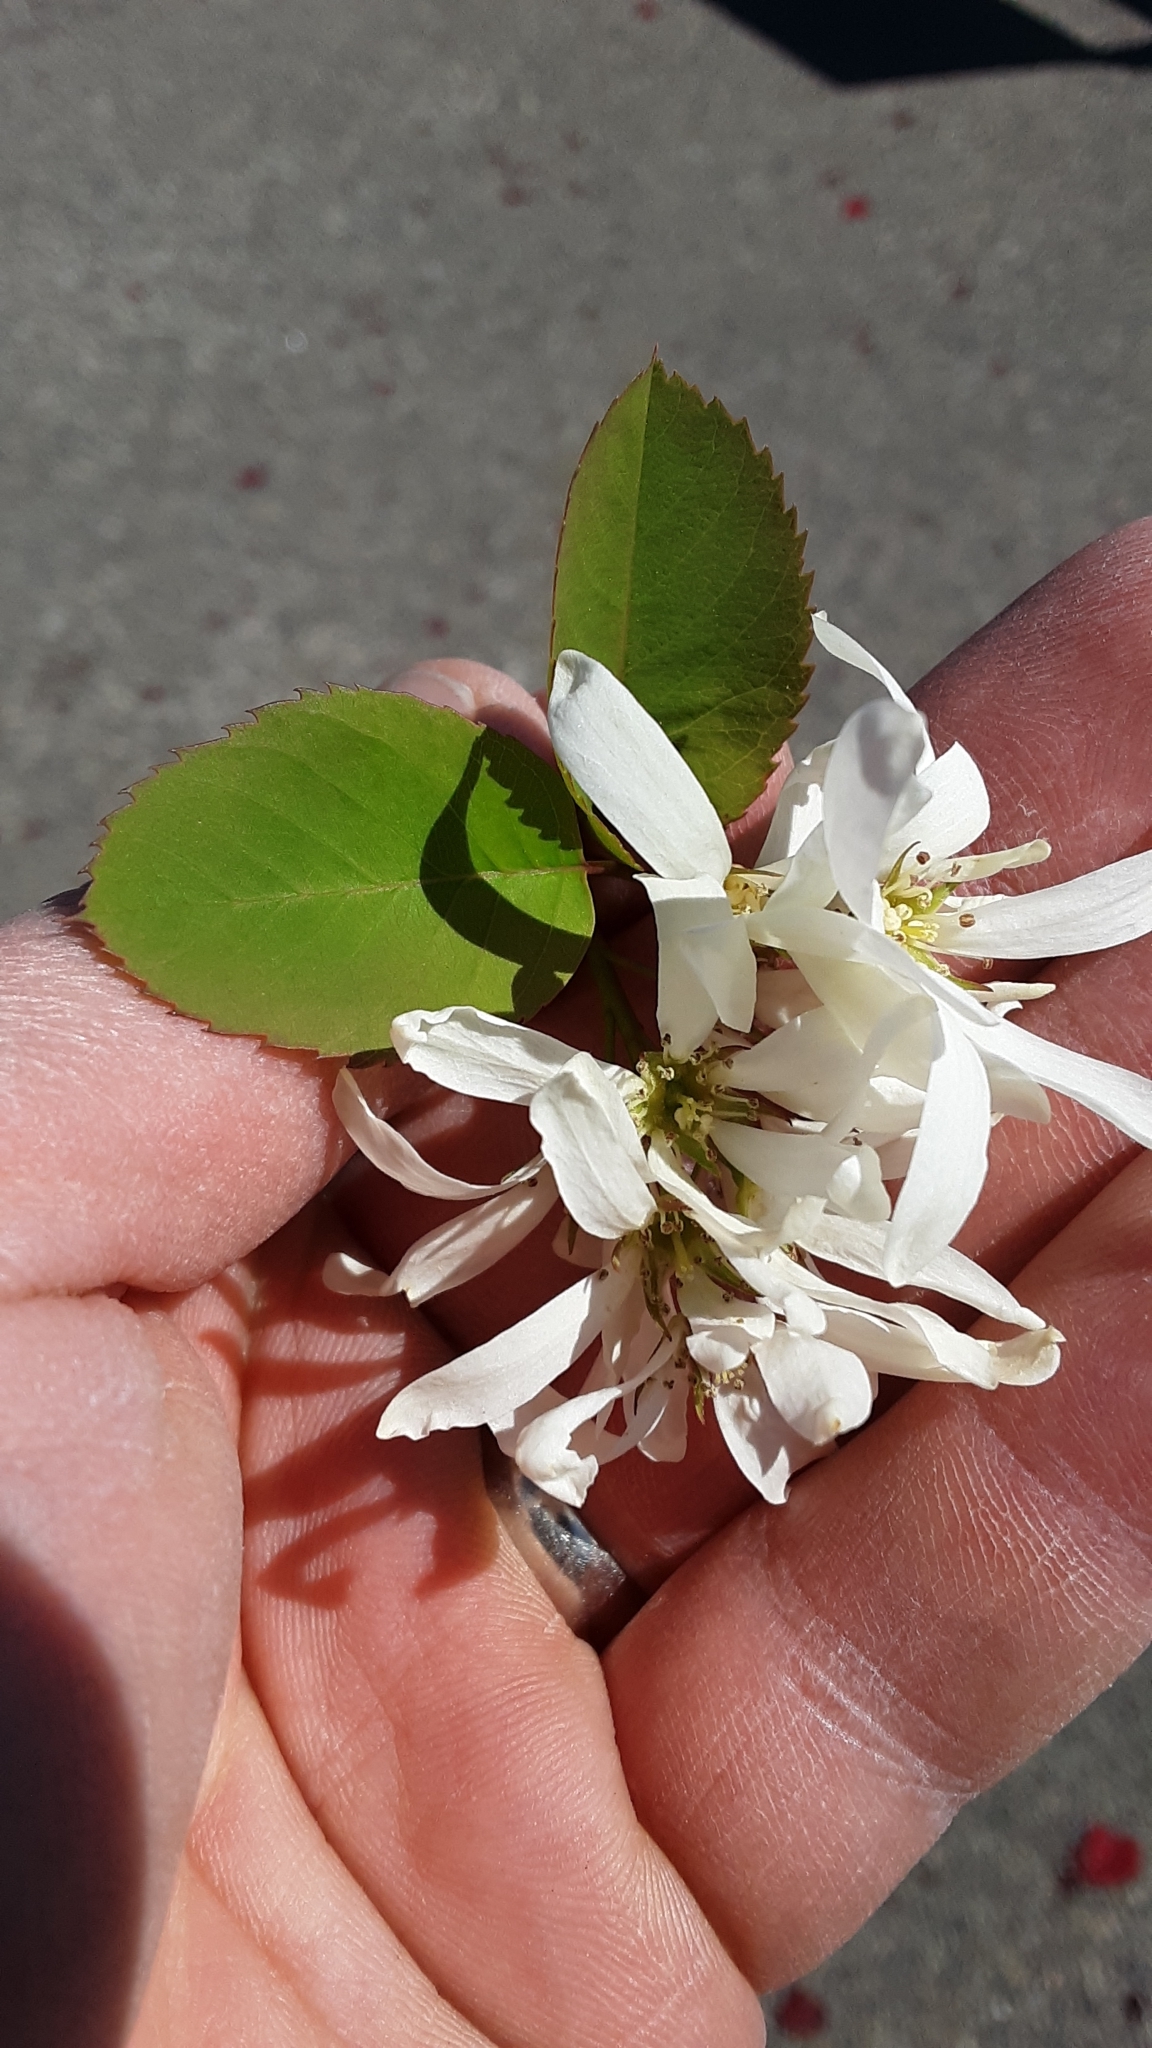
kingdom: Plantae
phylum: Tracheophyta
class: Magnoliopsida
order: Rosales
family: Rosaceae
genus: Amelanchier
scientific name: Amelanchier alnifolia
